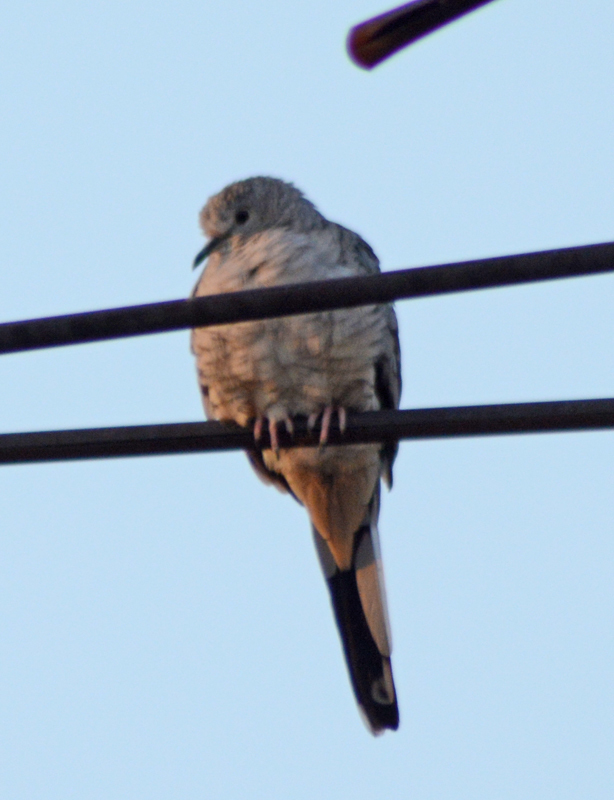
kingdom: Animalia
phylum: Chordata
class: Aves
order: Columbiformes
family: Columbidae
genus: Columbina
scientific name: Columbina inca
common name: Inca dove
